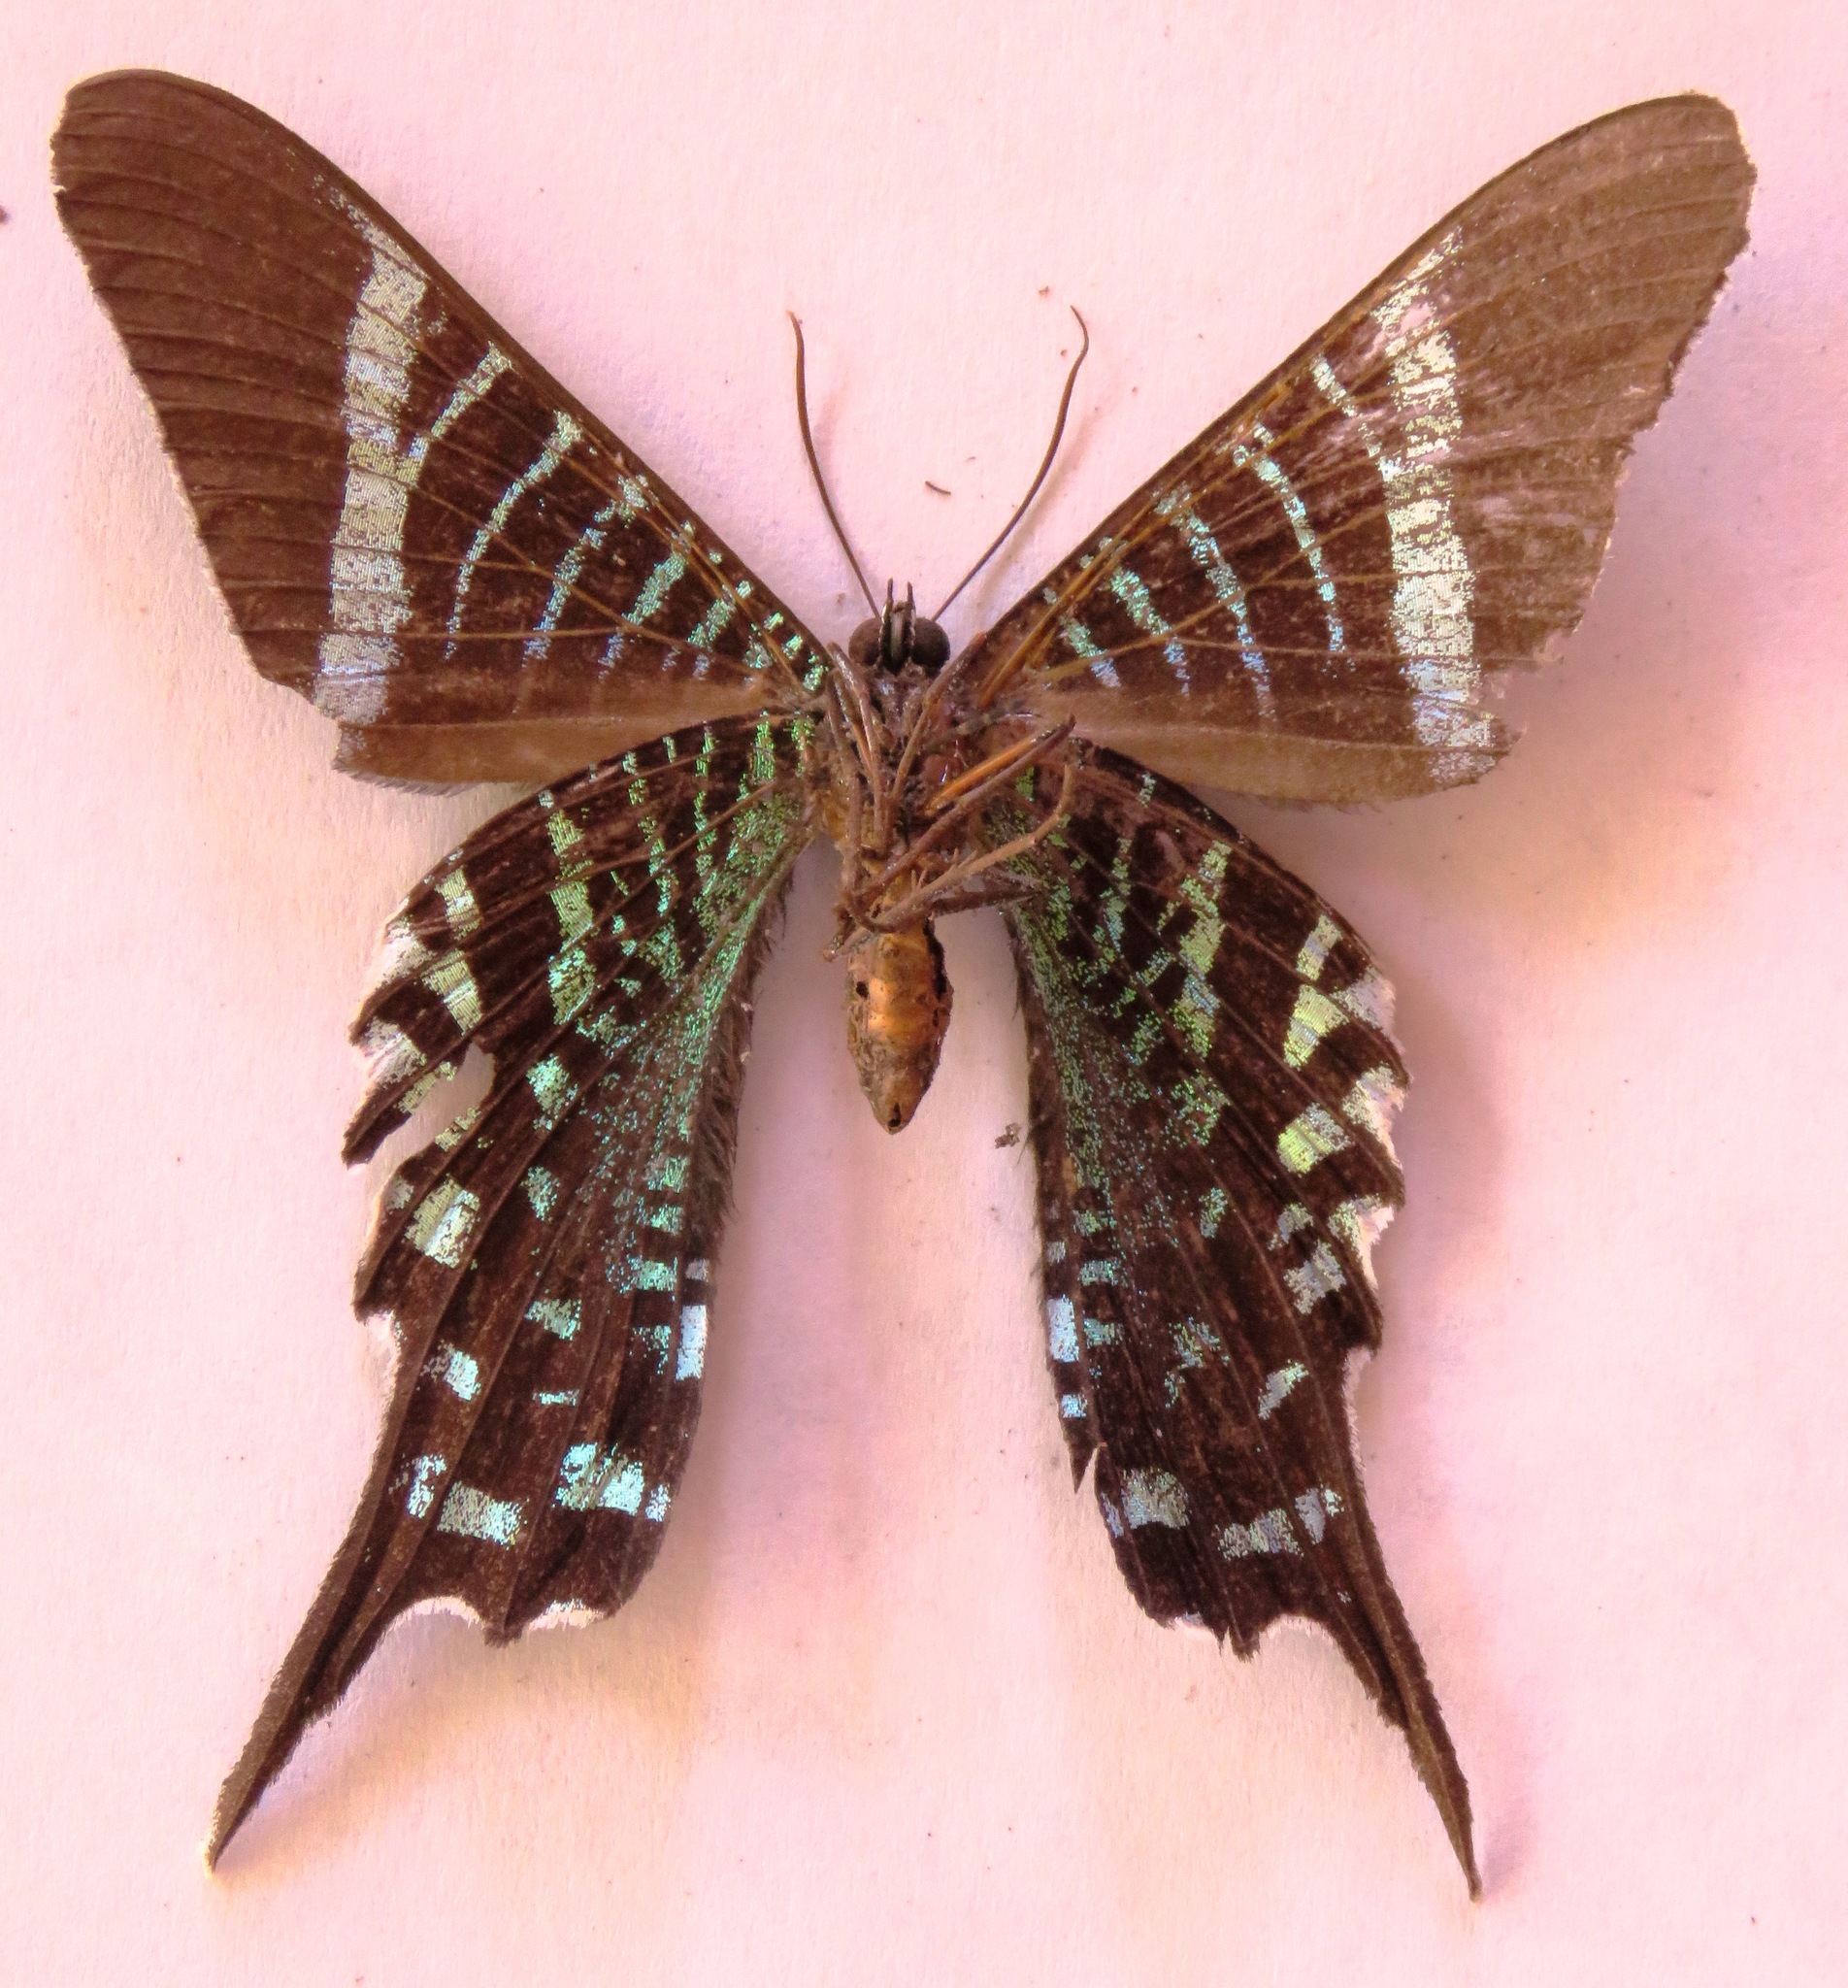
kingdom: Animalia
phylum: Arthropoda
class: Insecta
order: Lepidoptera
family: Uraniidae
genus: Urania
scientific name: Urania fulgens
